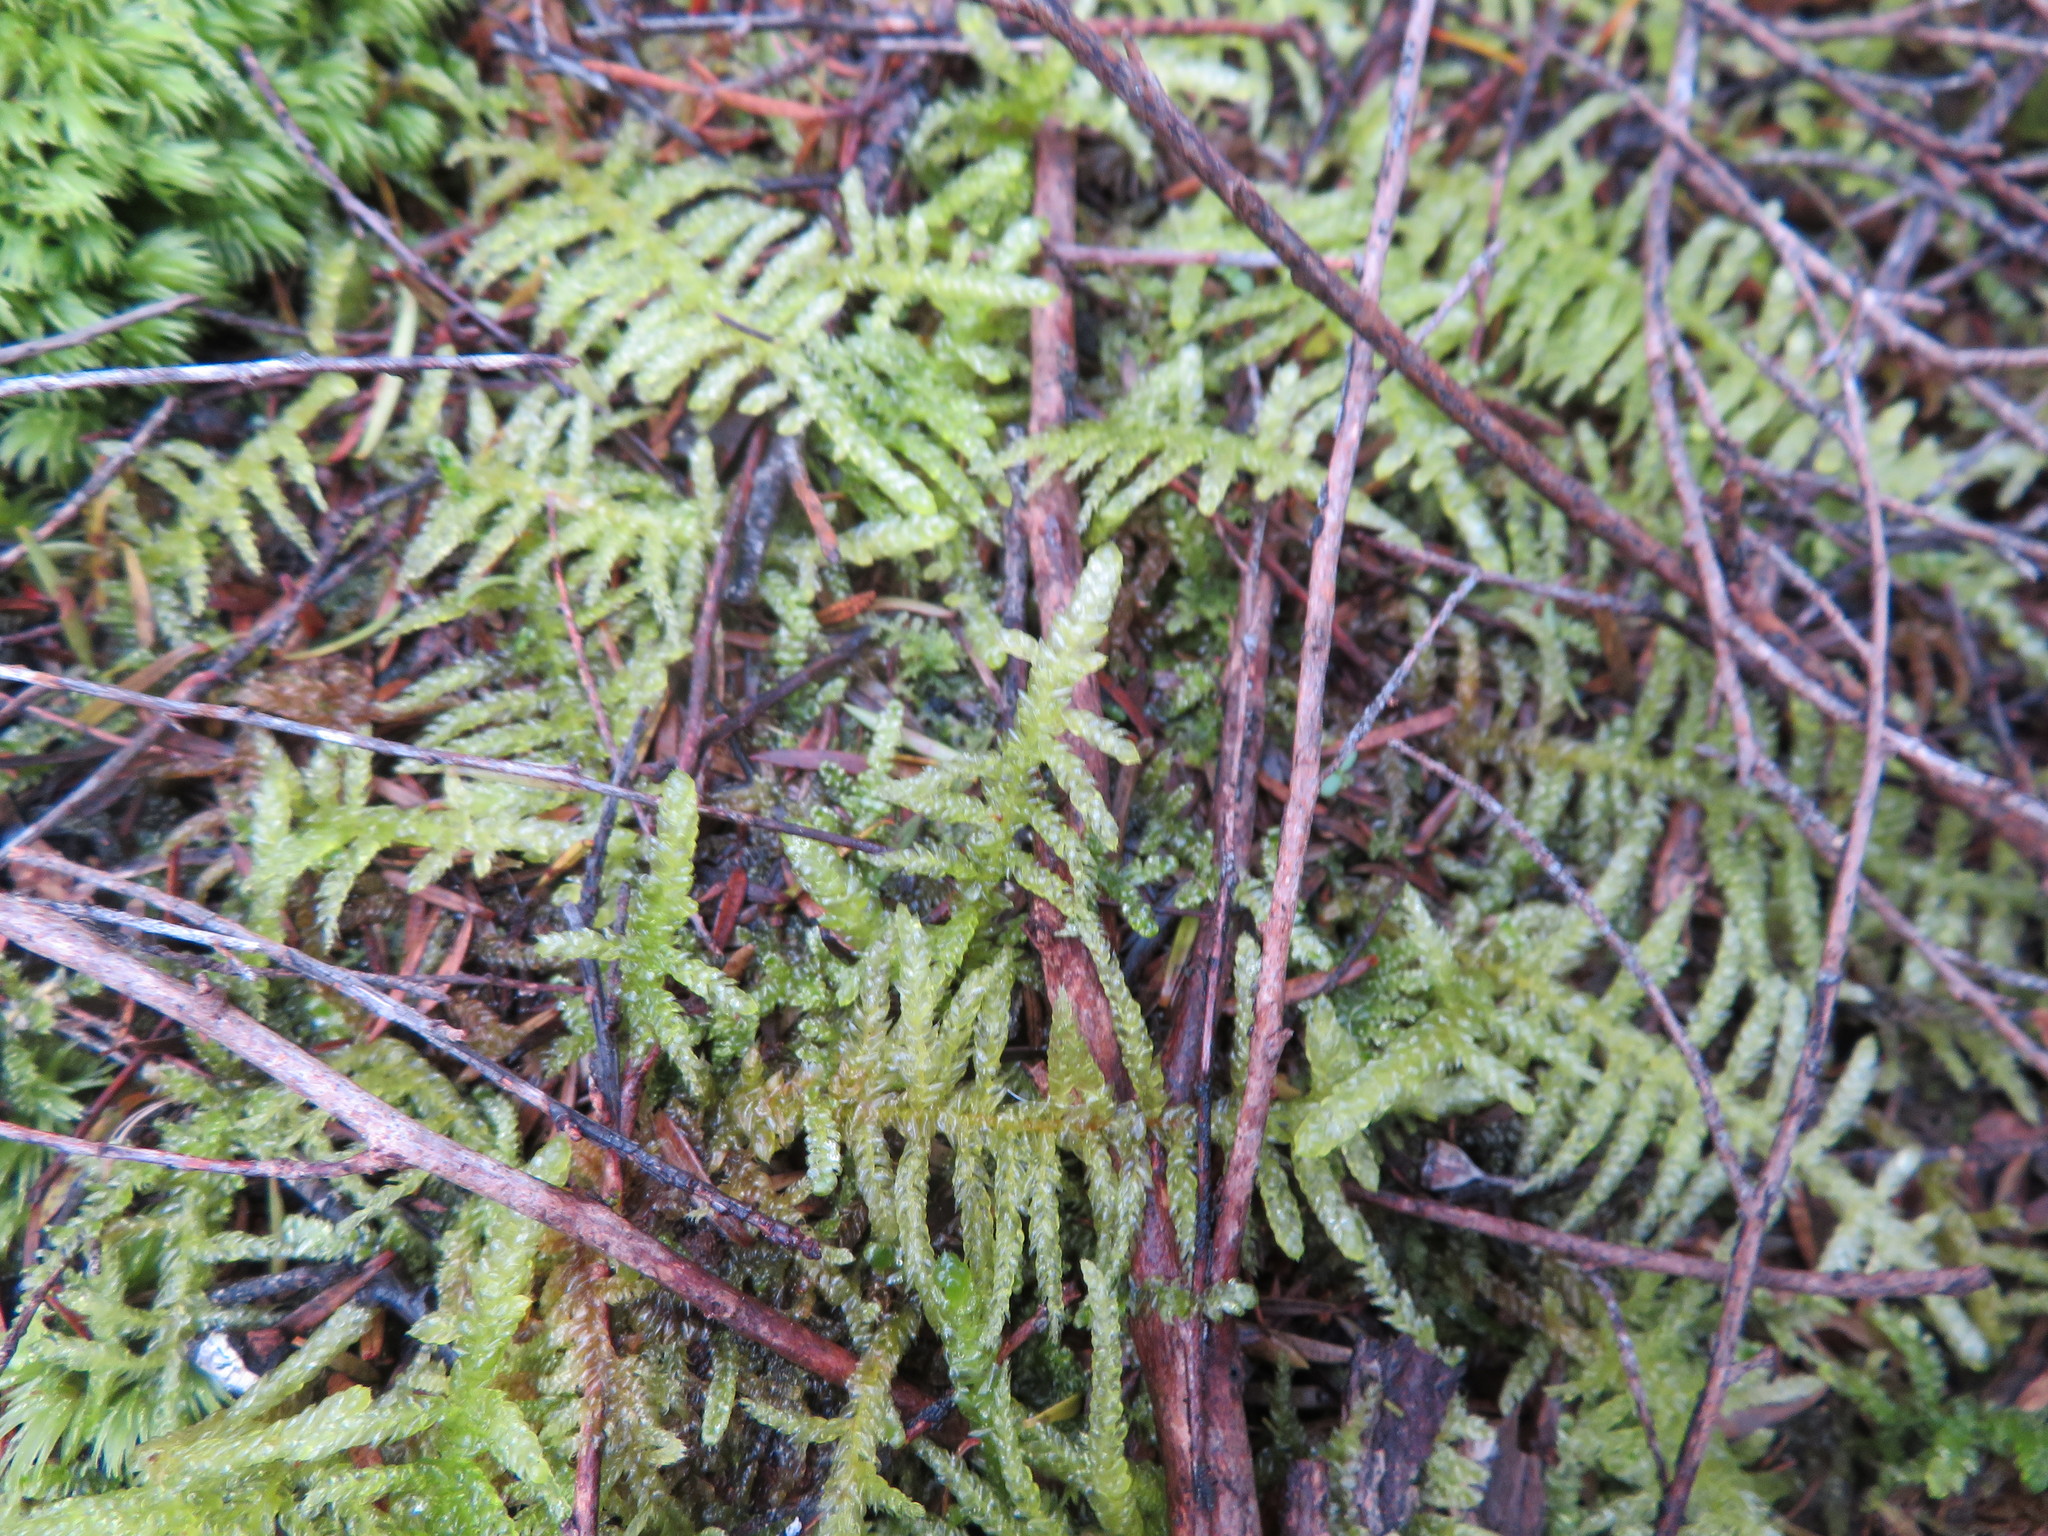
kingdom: Plantae
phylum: Bryophyta
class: Bryopsida
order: Hypnales
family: Brachytheciaceae
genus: Pseudoscleropodium
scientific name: Pseudoscleropodium purum
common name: Neat feather-moss
